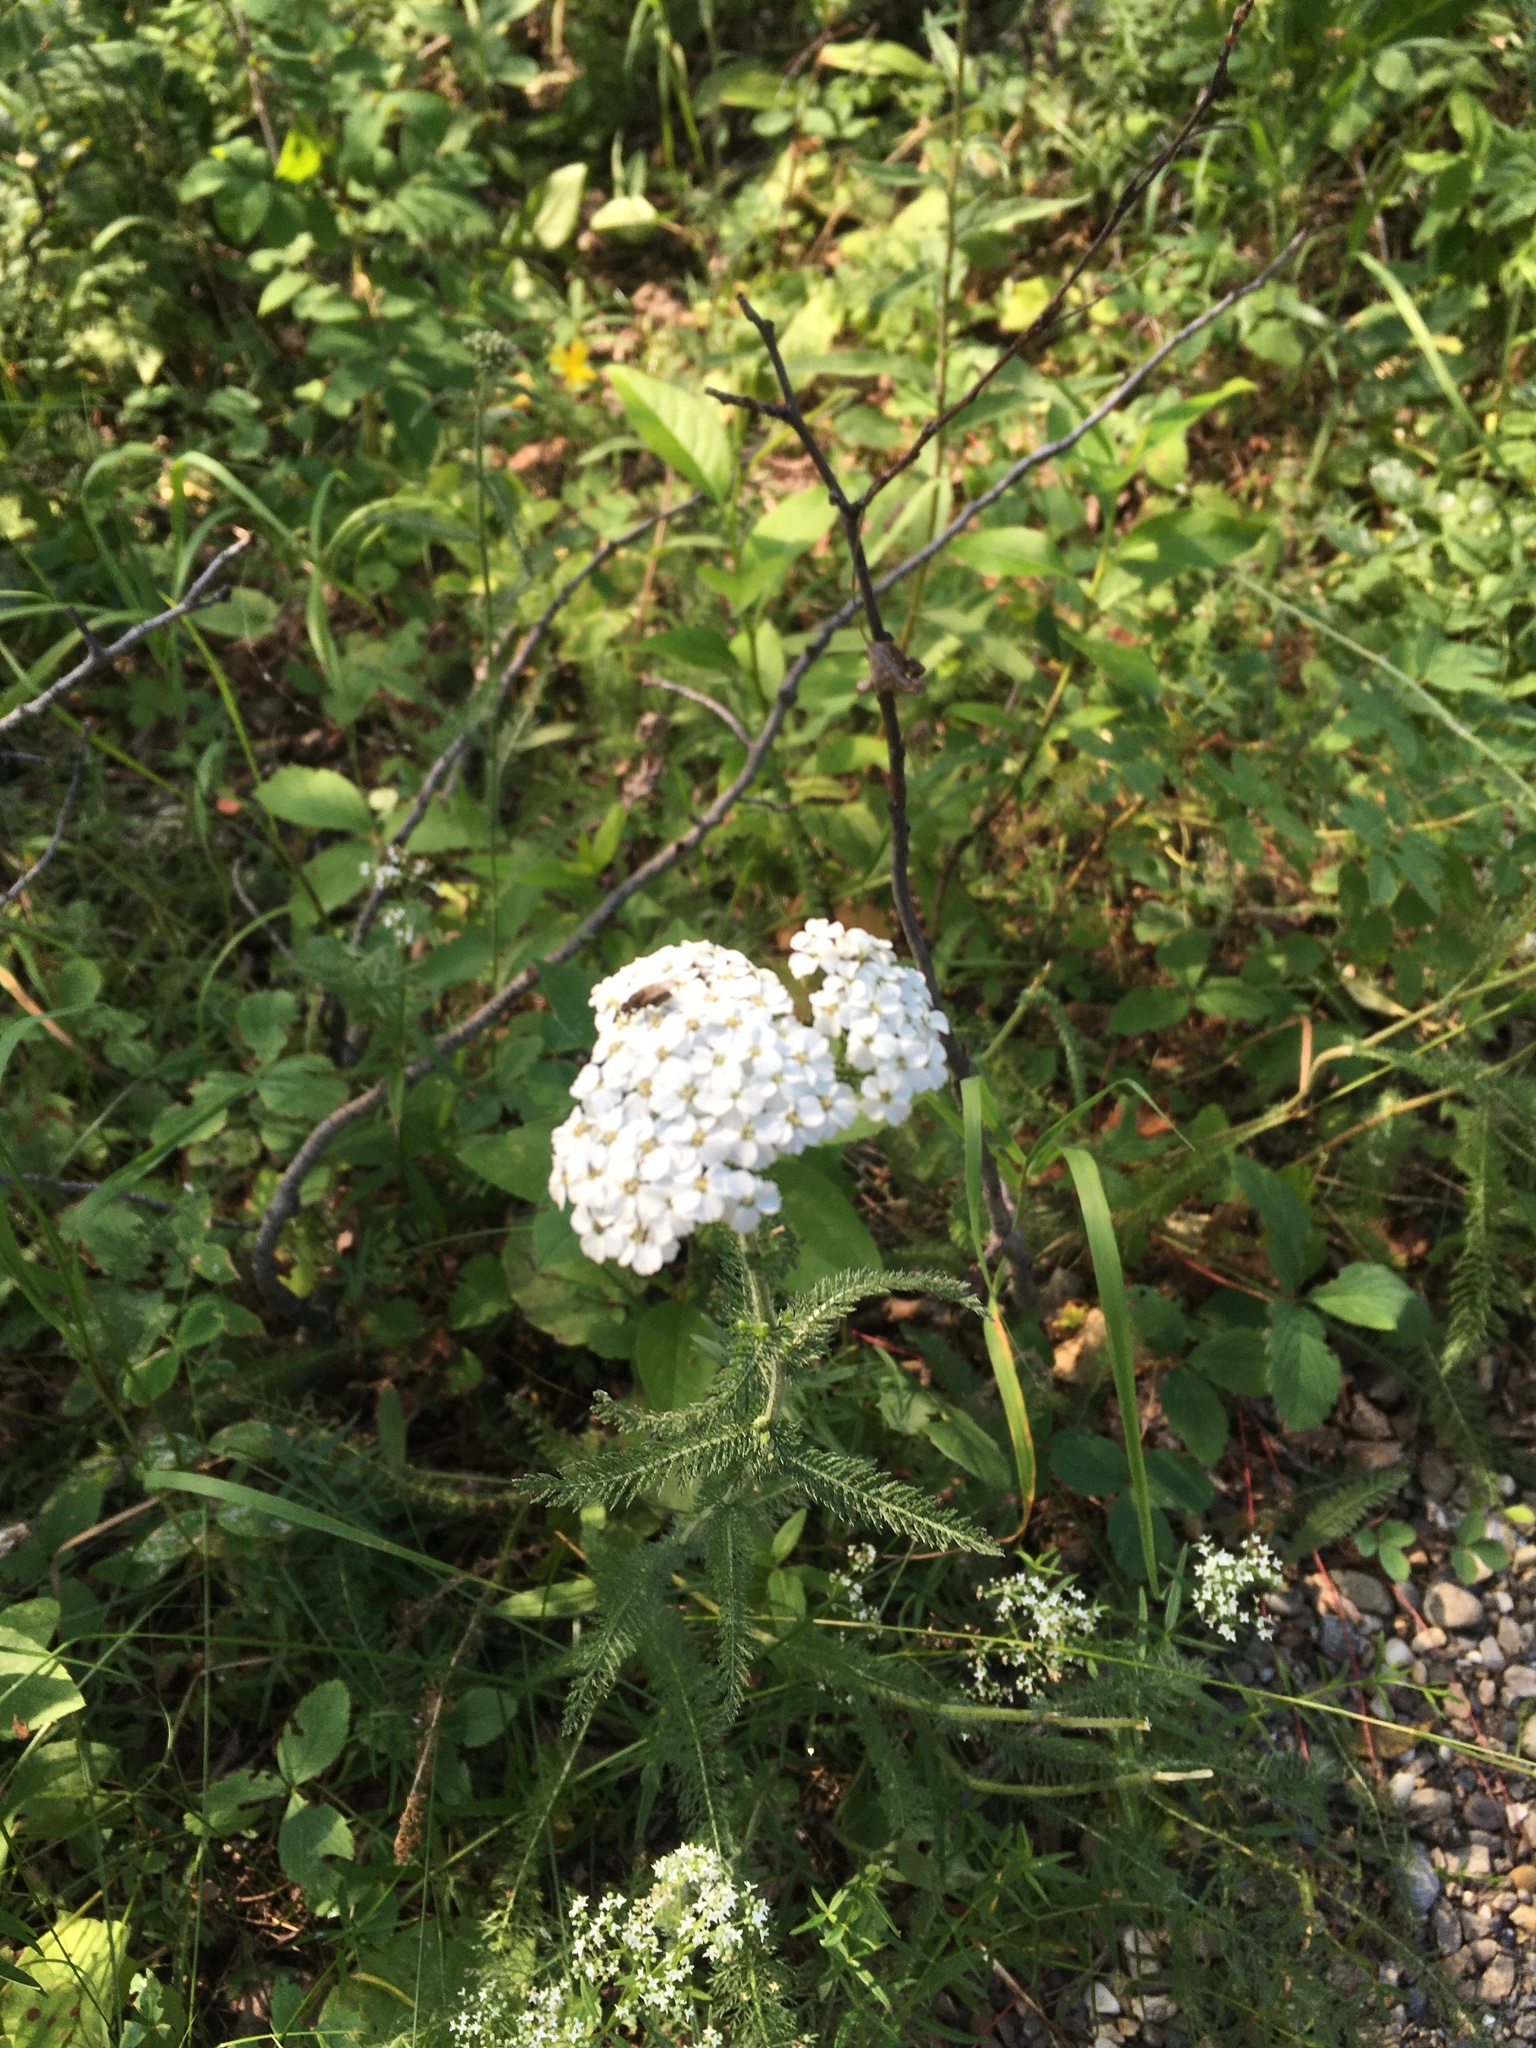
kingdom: Plantae
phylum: Tracheophyta
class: Magnoliopsida
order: Asterales
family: Asteraceae
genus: Achillea
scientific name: Achillea millefolium
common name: Yarrow
